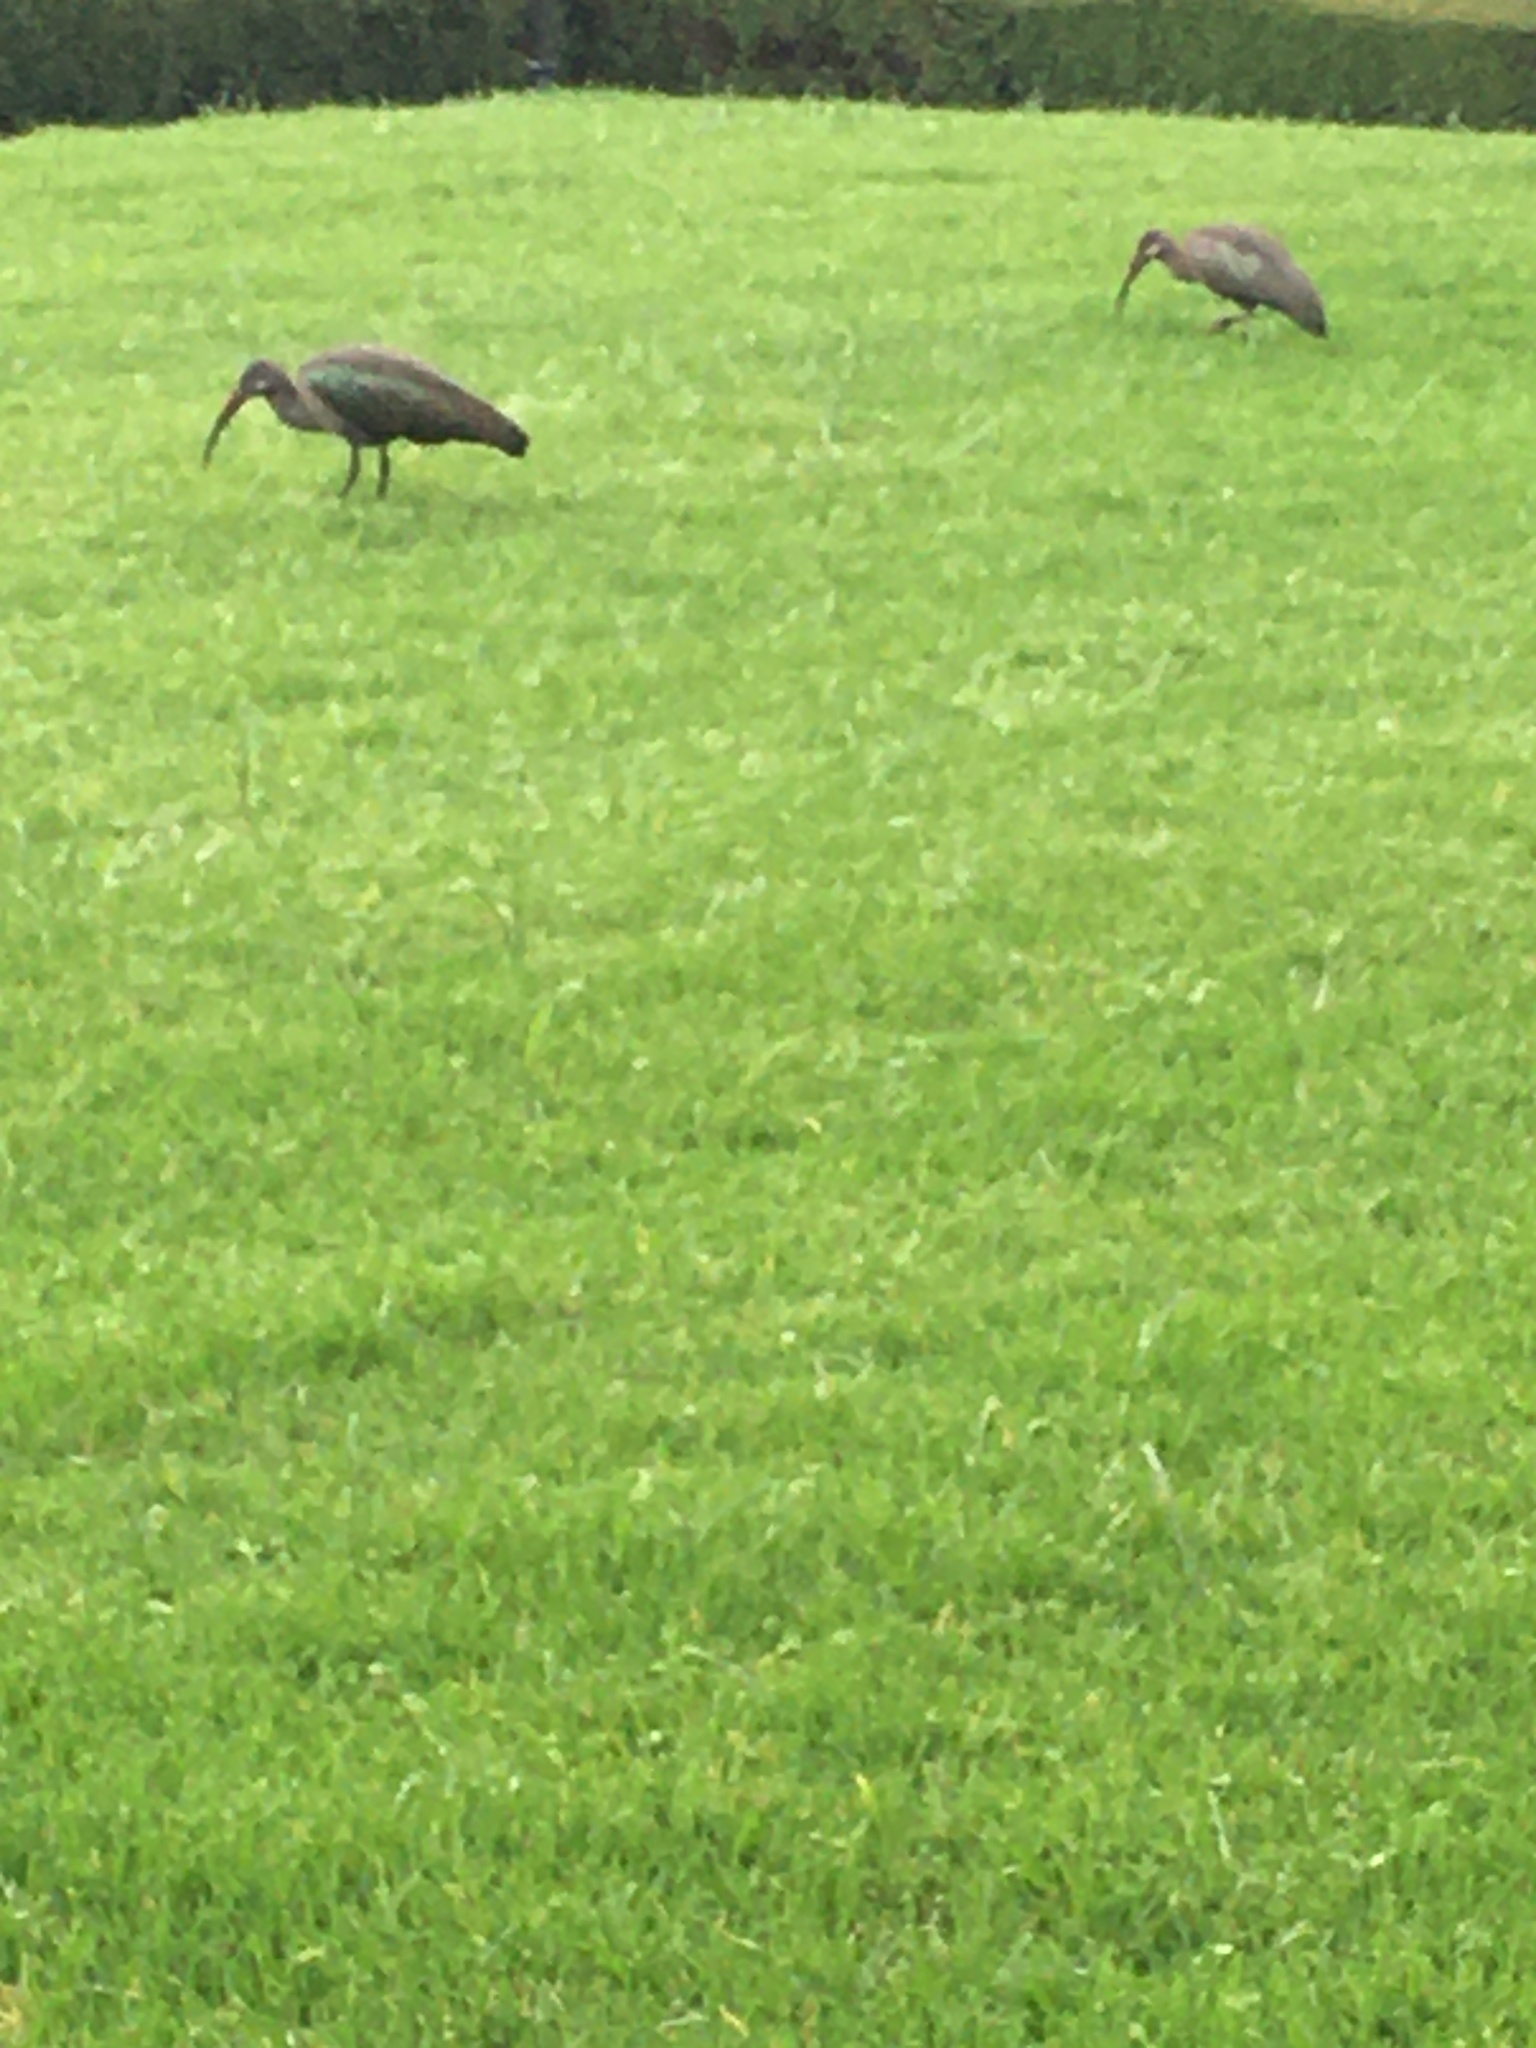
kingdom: Animalia
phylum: Chordata
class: Aves
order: Pelecaniformes
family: Threskiornithidae
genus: Bostrychia
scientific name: Bostrychia hagedash
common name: Hadada ibis
